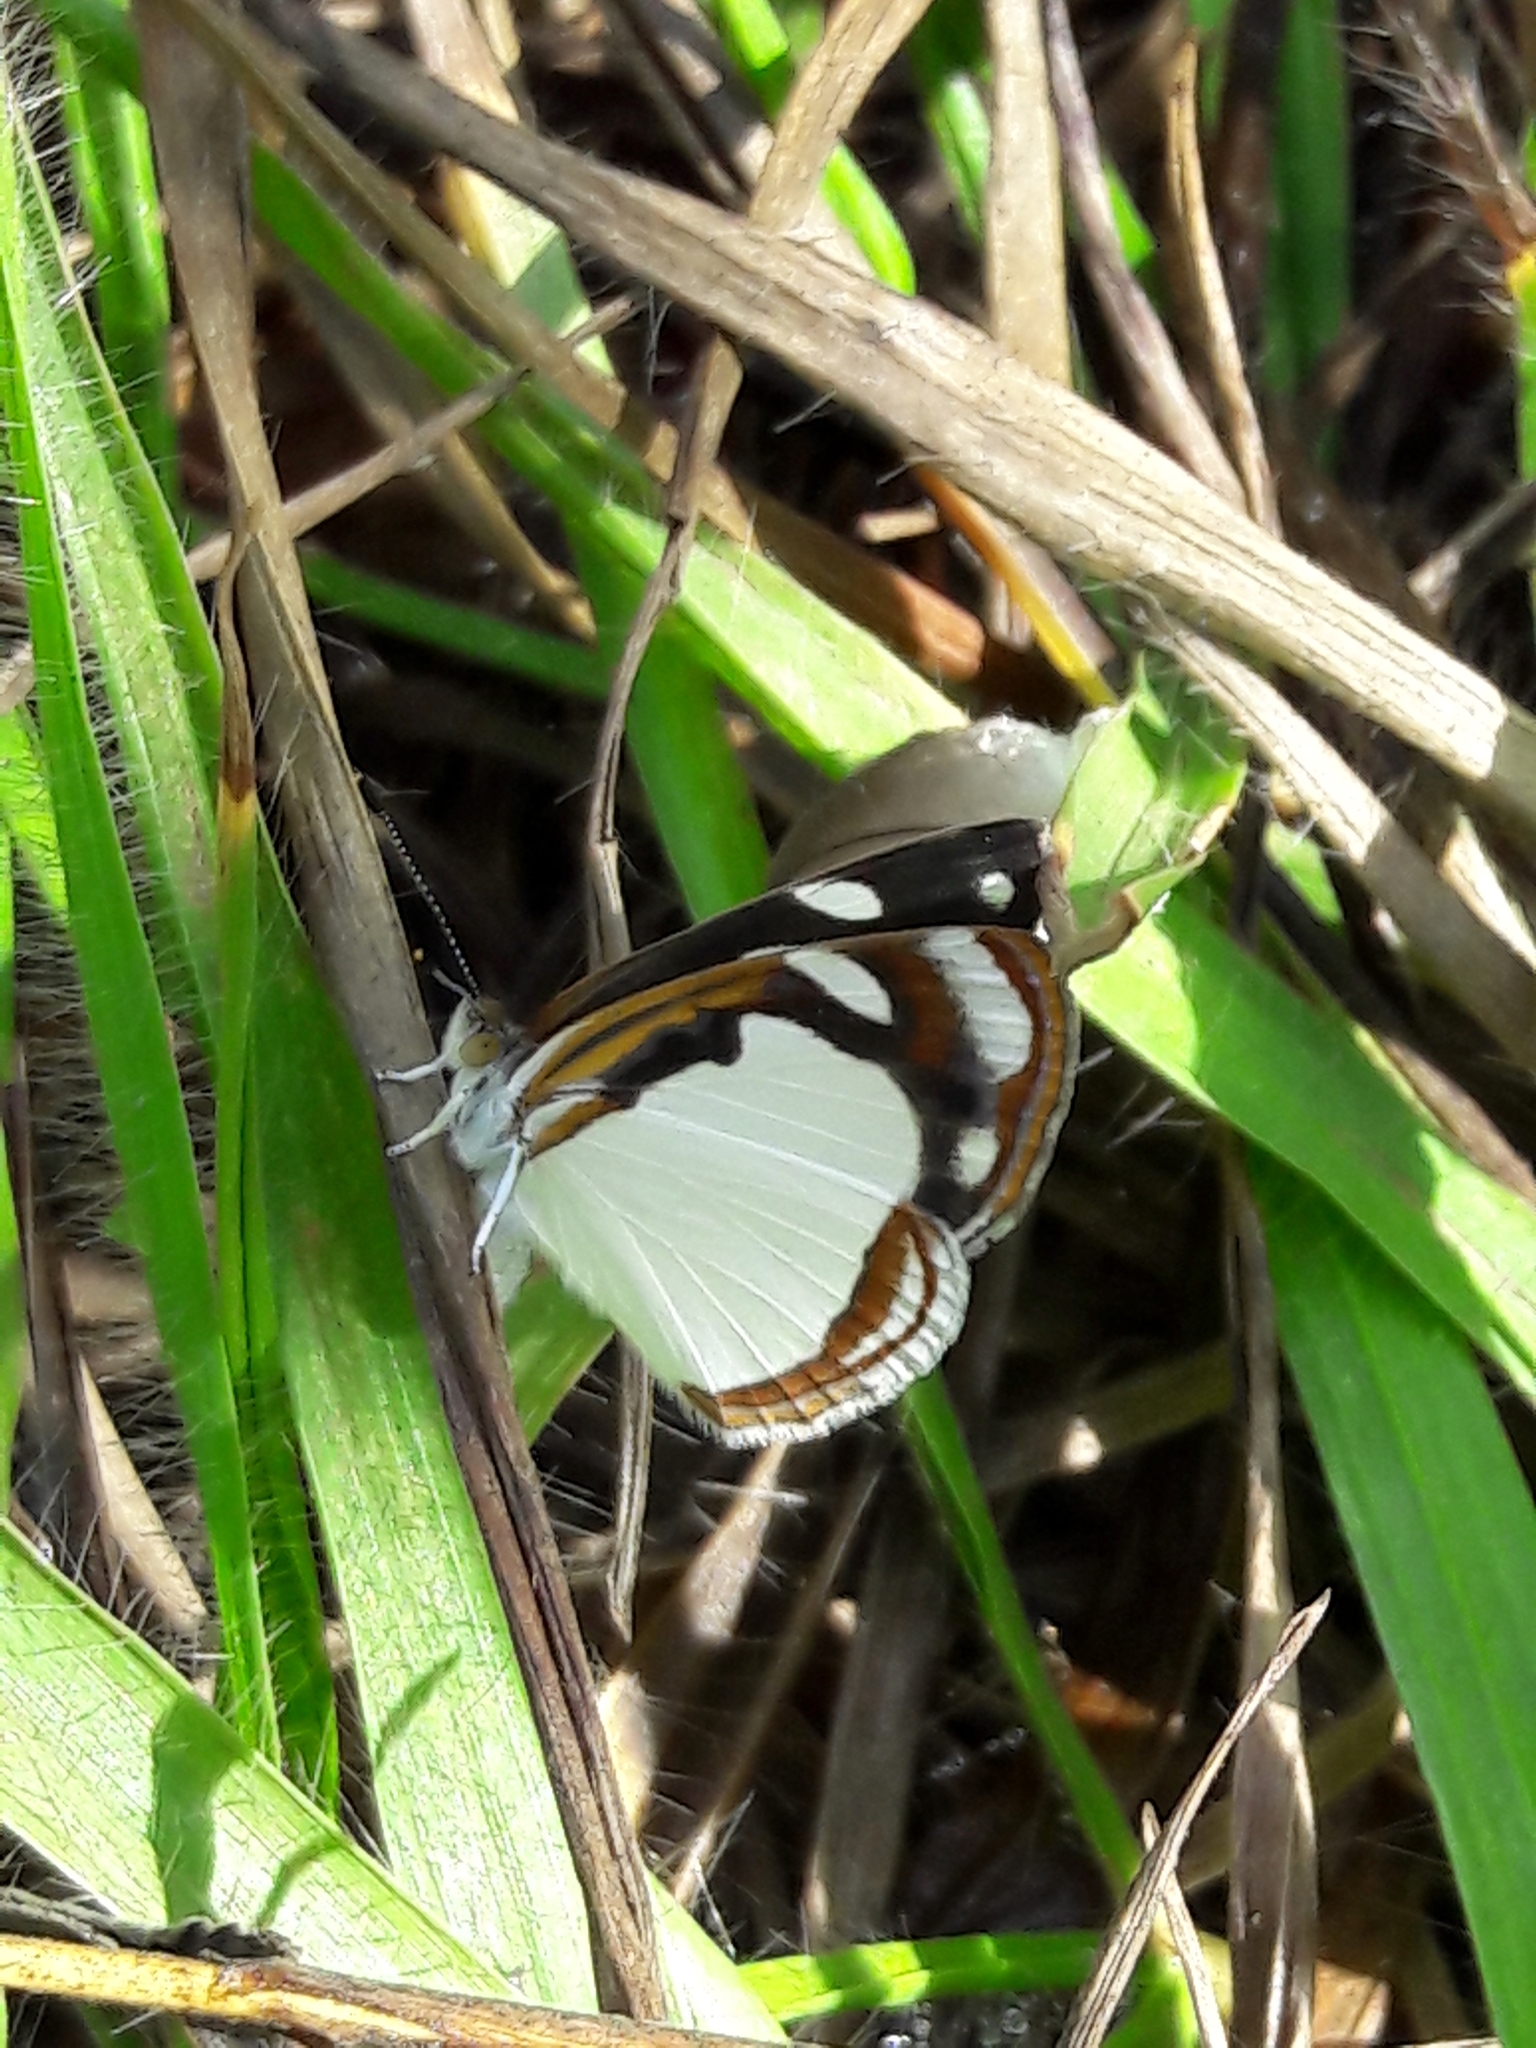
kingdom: Animalia
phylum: Arthropoda
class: Insecta
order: Lepidoptera
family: Nymphalidae
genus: Dynamine
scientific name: Dynamine agacles
